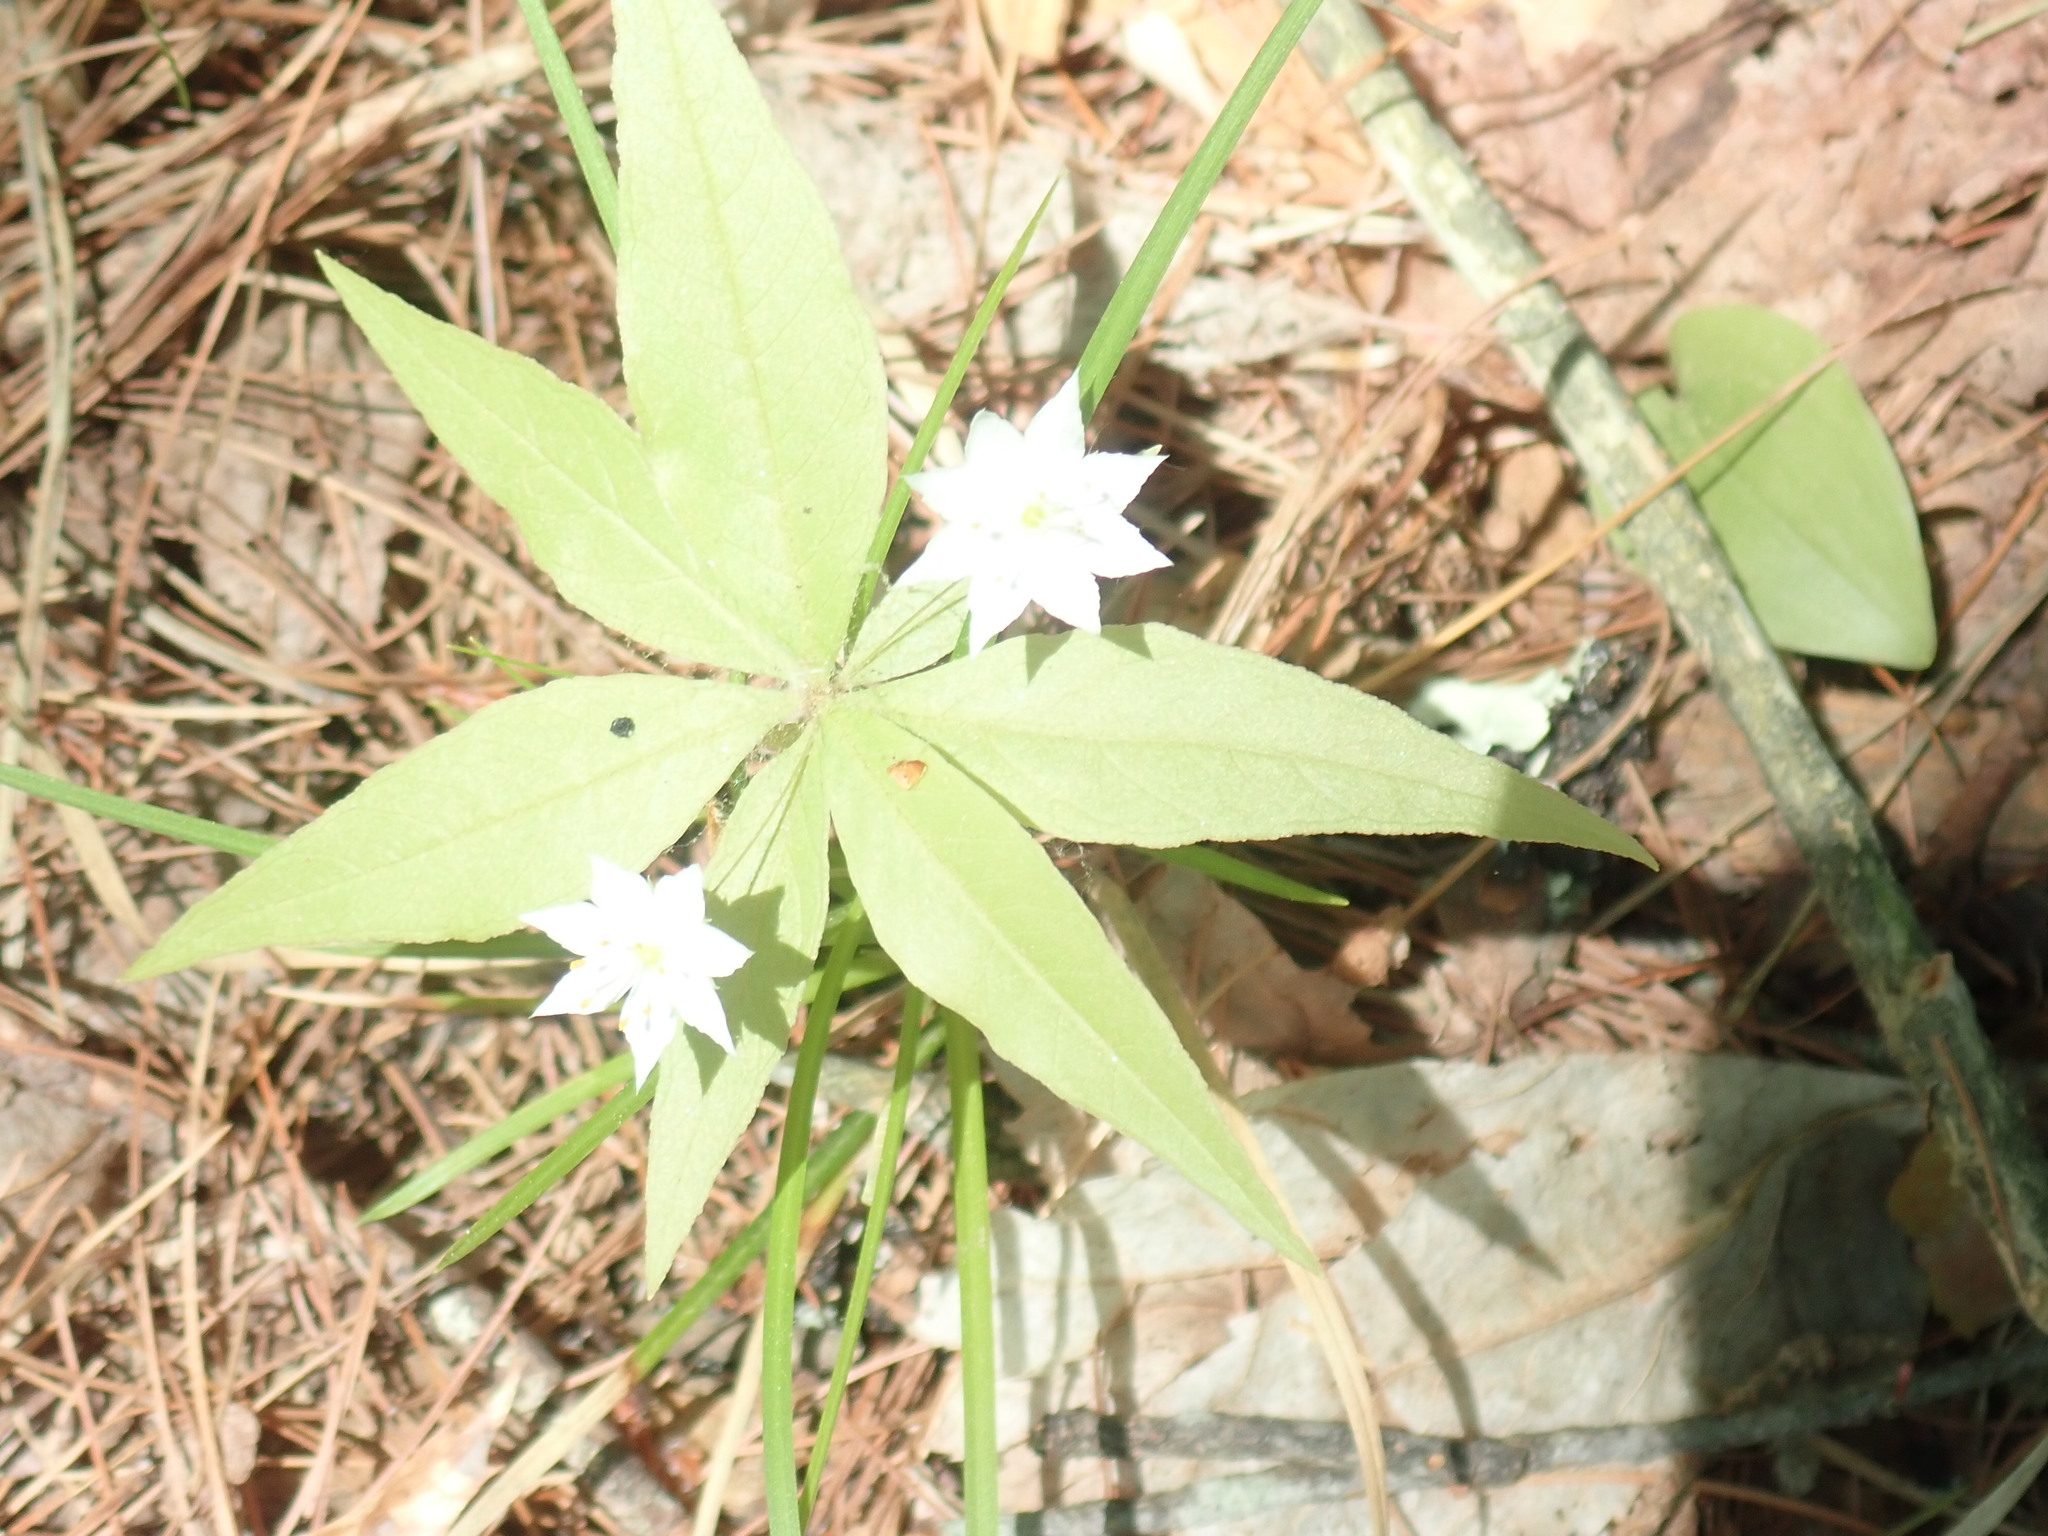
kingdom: Plantae
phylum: Tracheophyta
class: Magnoliopsida
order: Ericales
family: Primulaceae
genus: Lysimachia
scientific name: Lysimachia borealis
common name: American starflower
